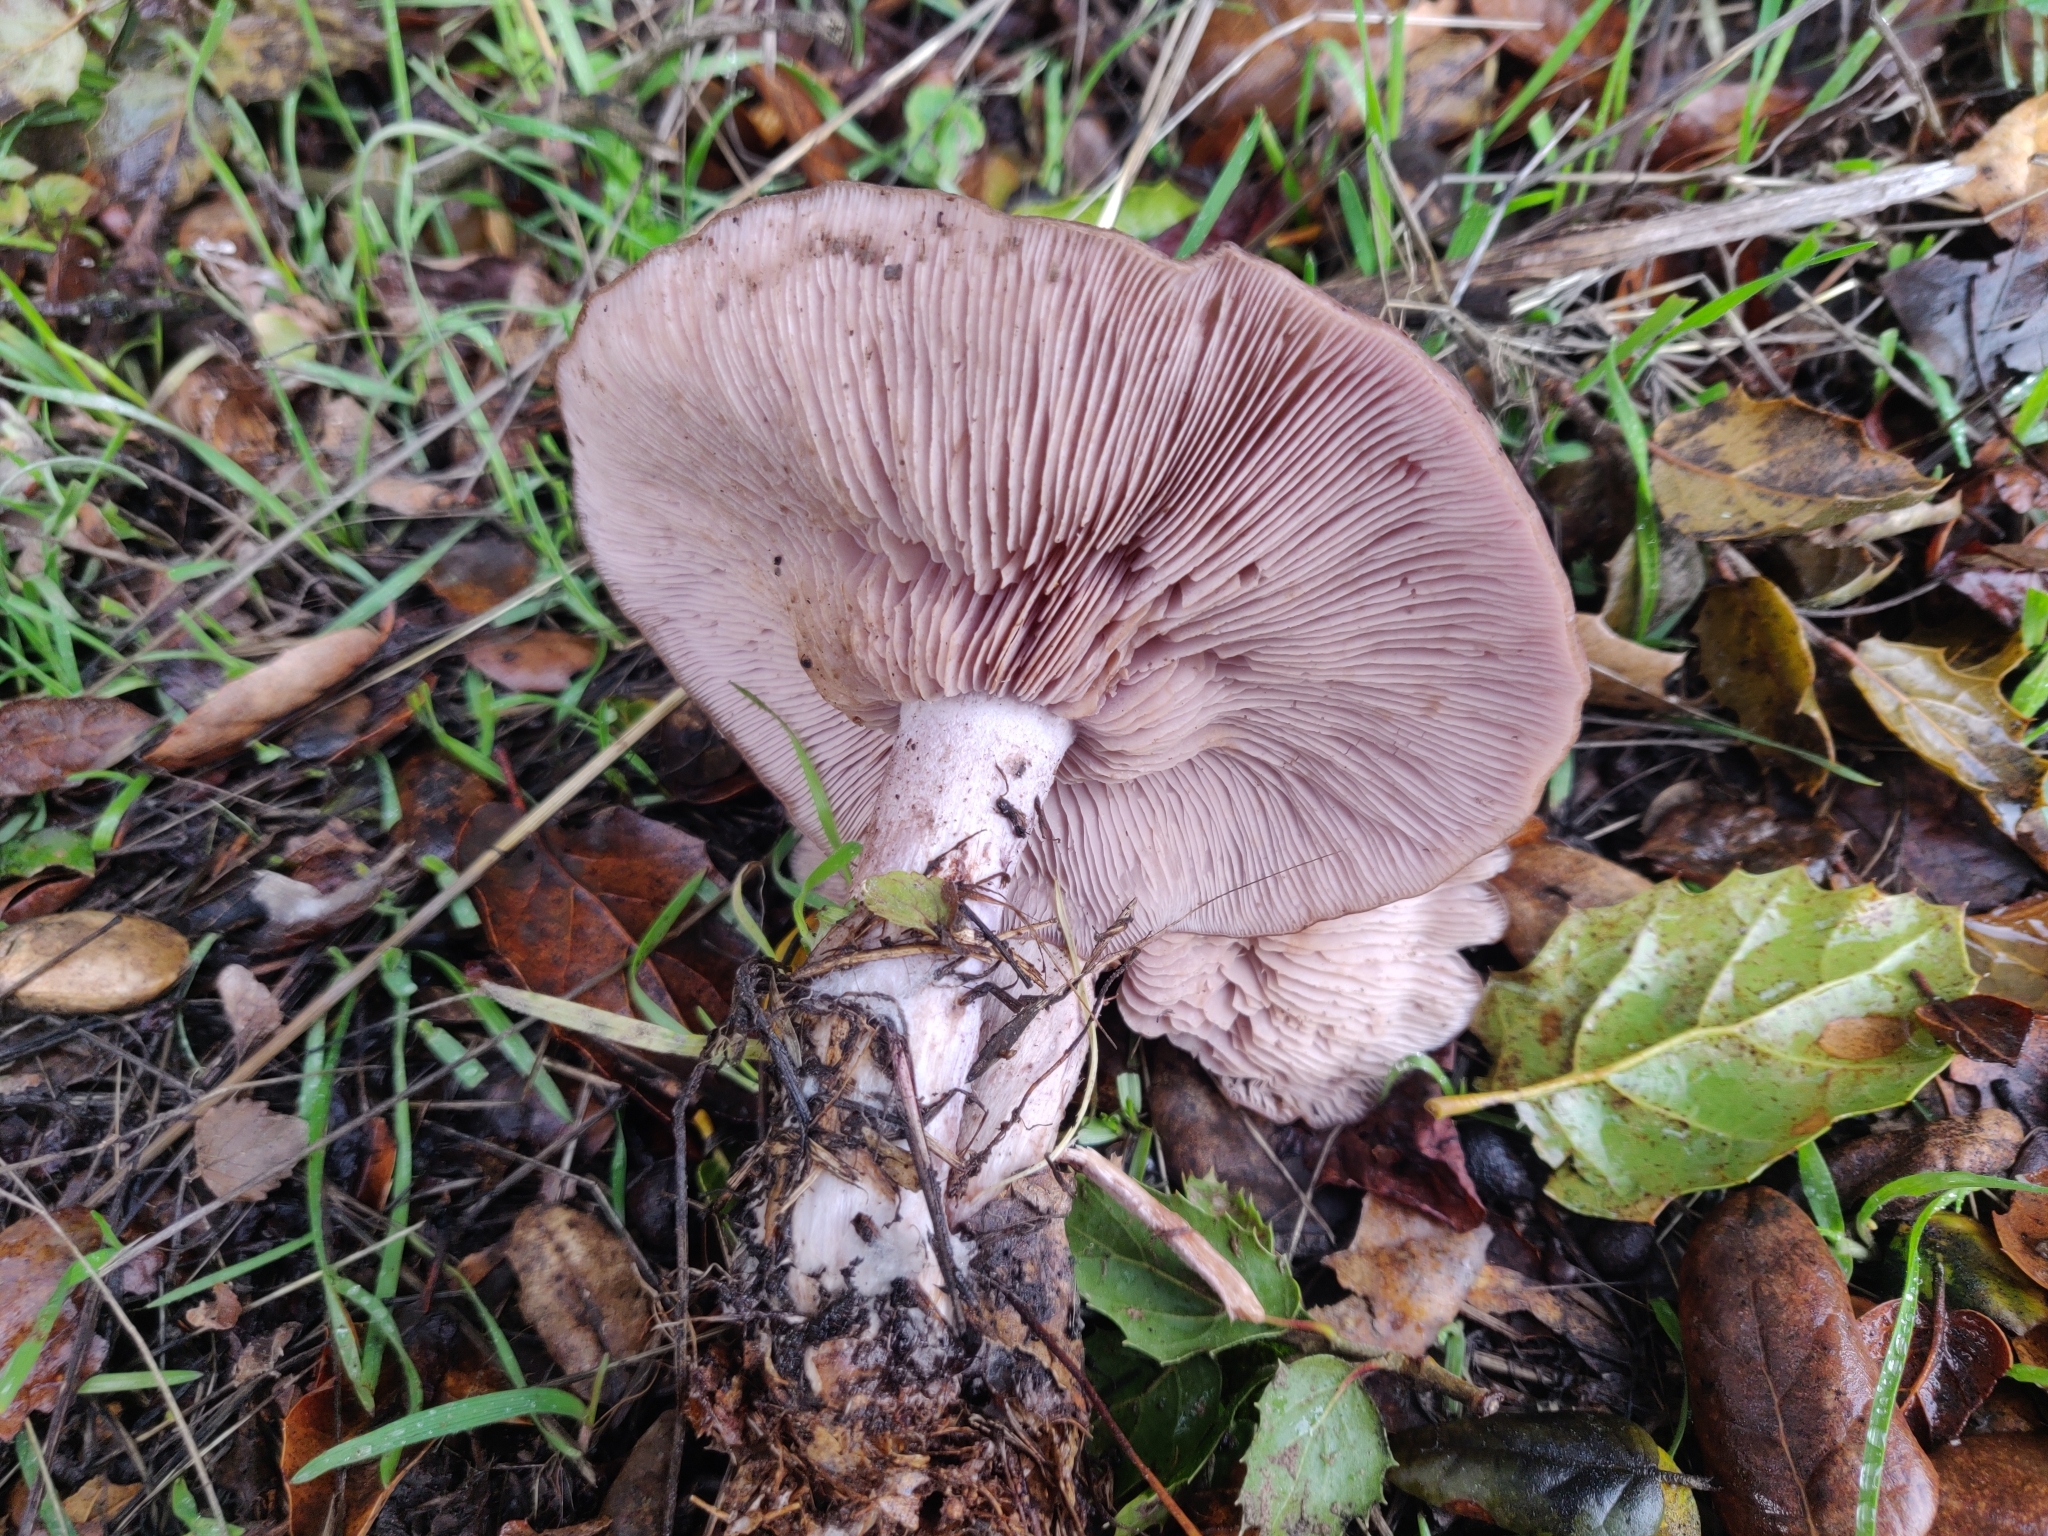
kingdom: Fungi
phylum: Basidiomycota
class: Agaricomycetes
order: Agaricales
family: Tricholomataceae
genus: Collybia
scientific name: Collybia
